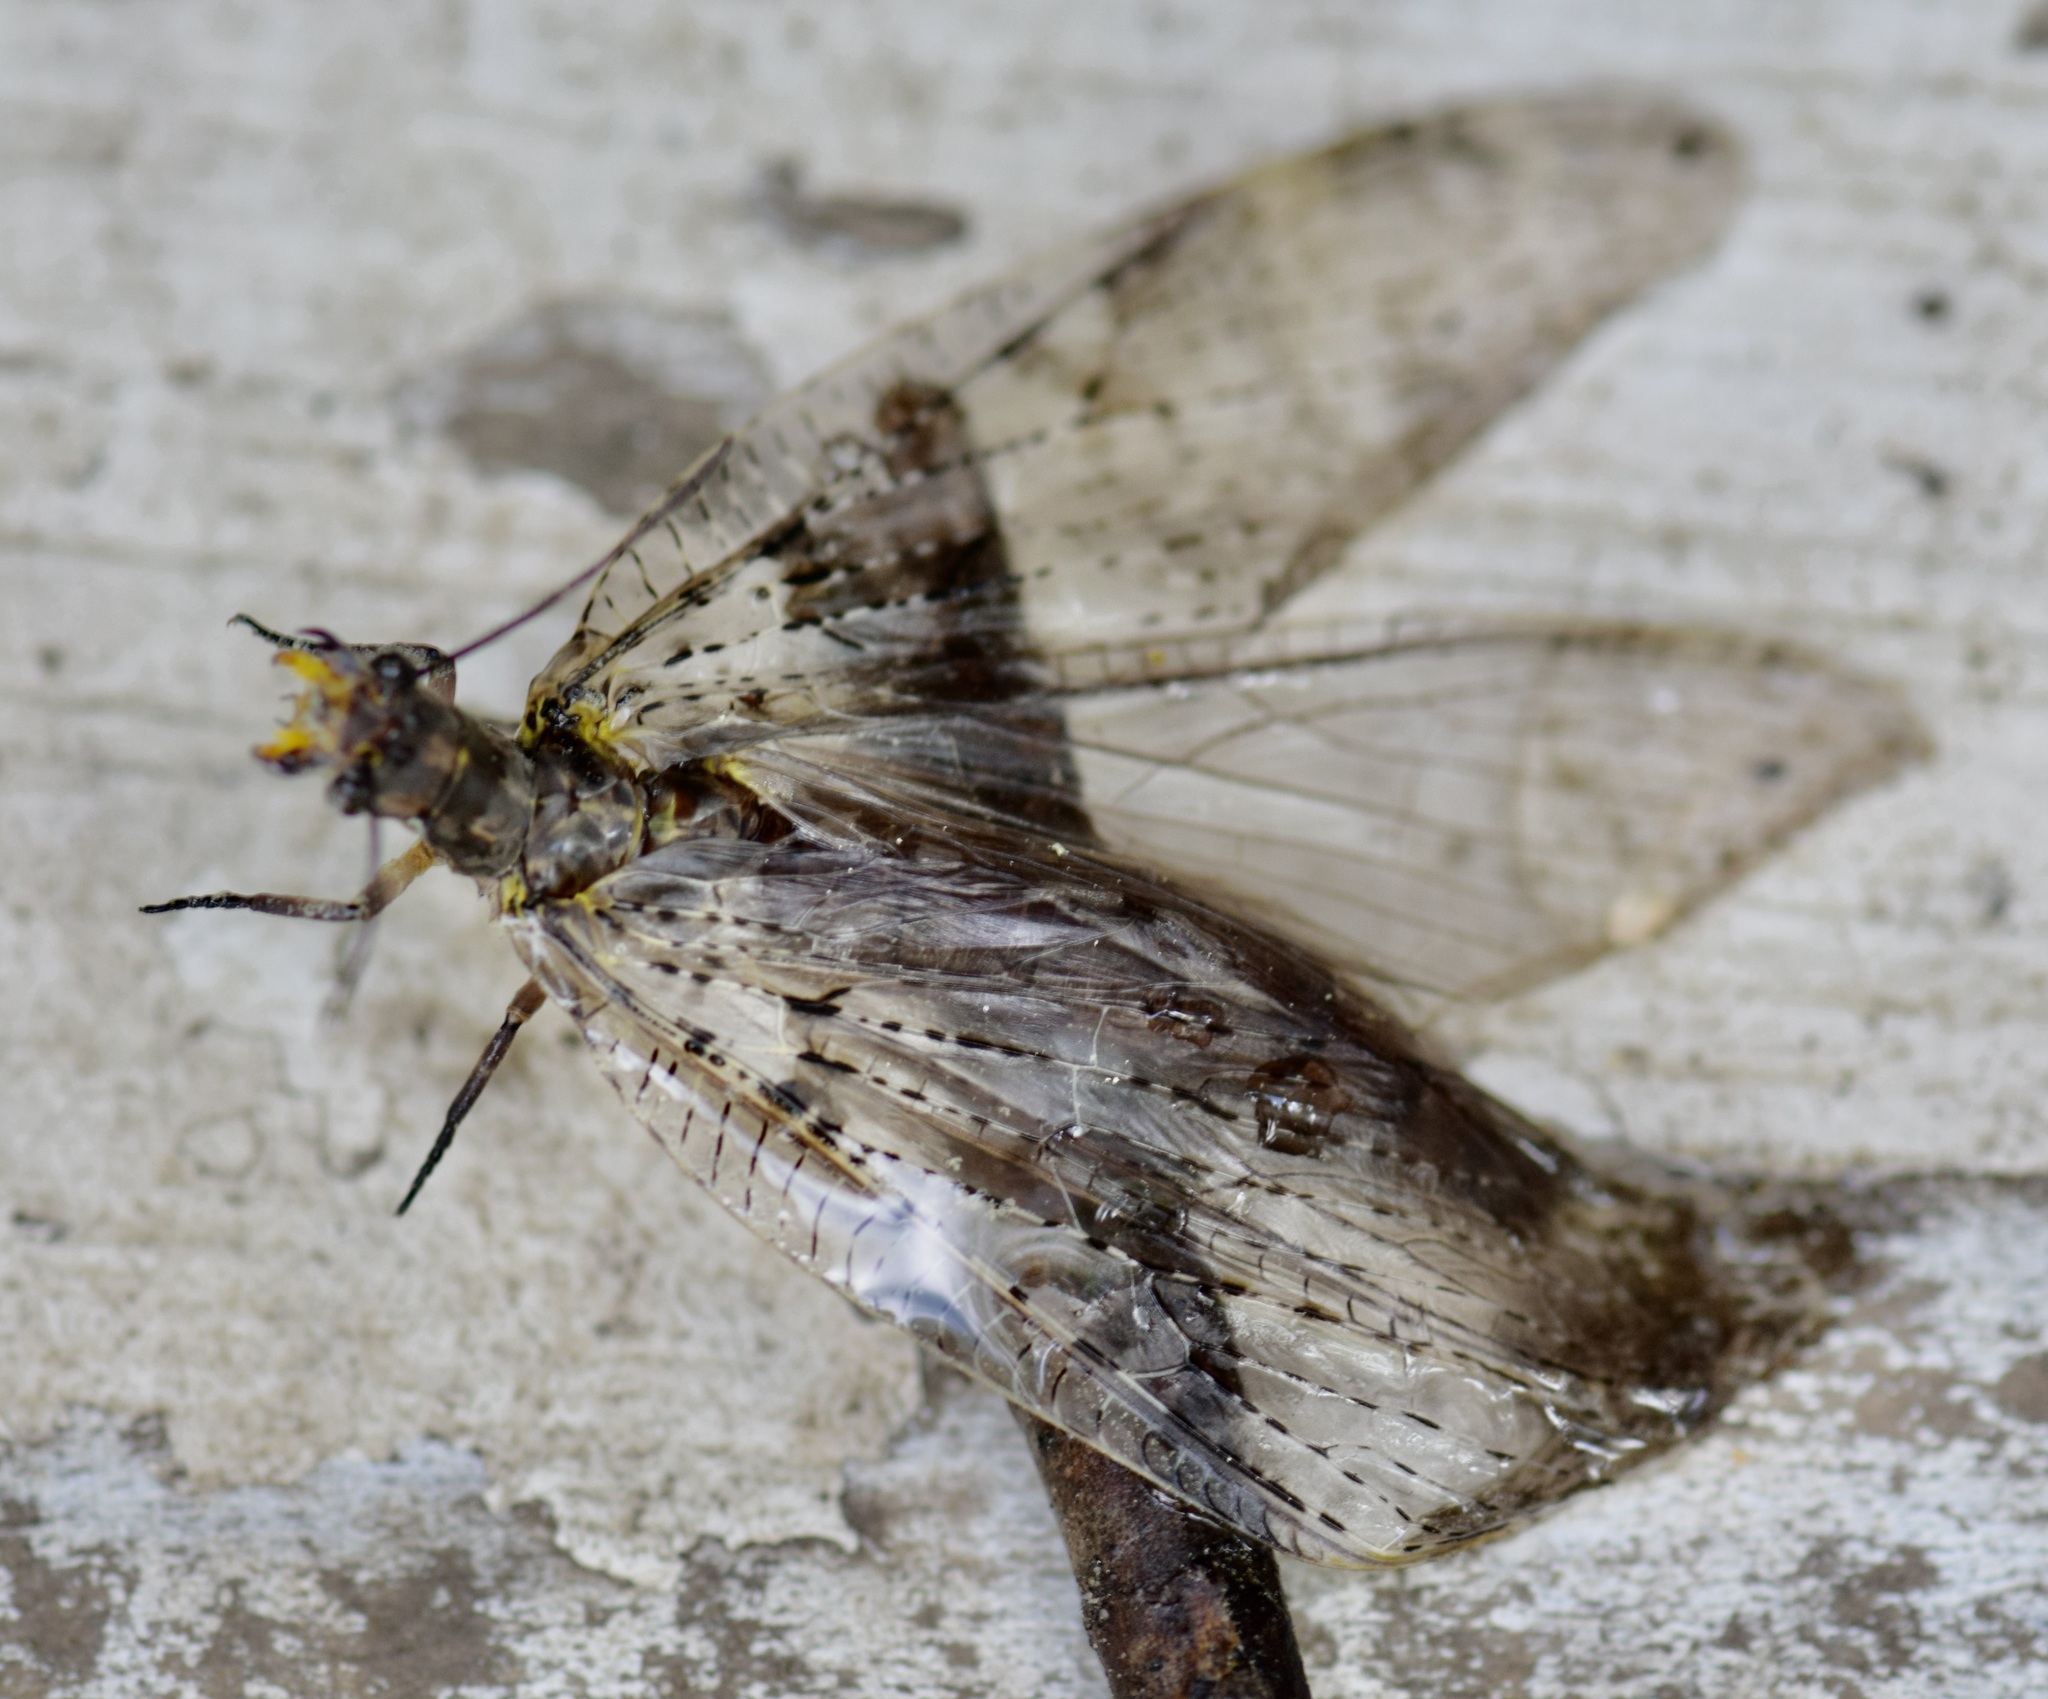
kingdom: Animalia
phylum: Arthropoda
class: Insecta
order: Megaloptera
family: Corydalidae
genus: Chauliodes
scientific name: Chauliodes pectinicornis
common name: Summer fishfly
